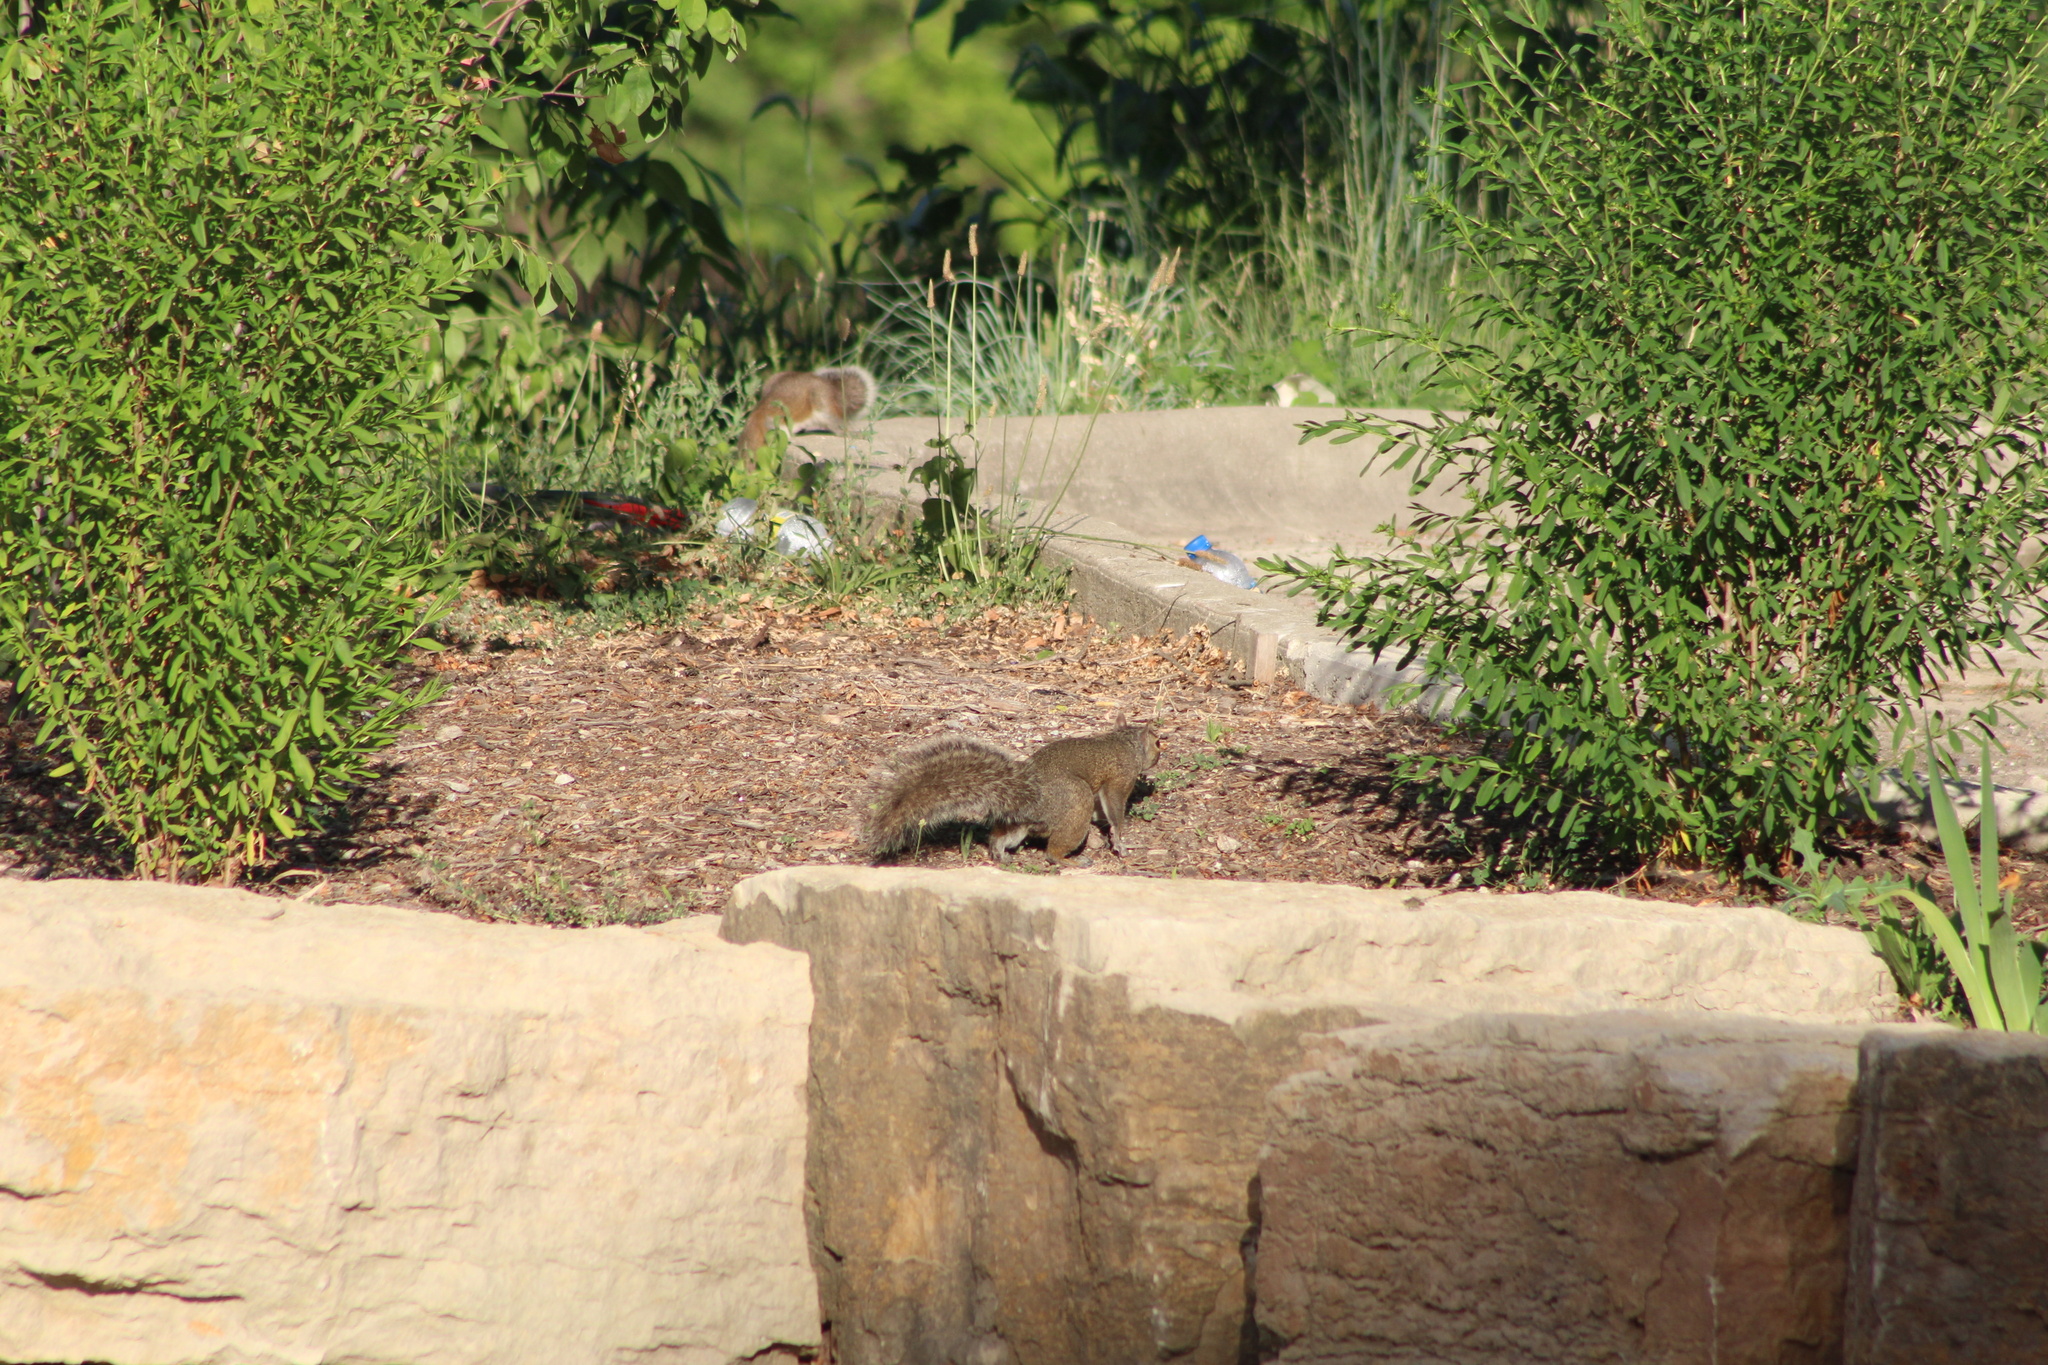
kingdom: Animalia
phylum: Chordata
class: Mammalia
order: Rodentia
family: Sciuridae
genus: Sciurus
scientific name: Sciurus carolinensis
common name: Eastern gray squirrel
